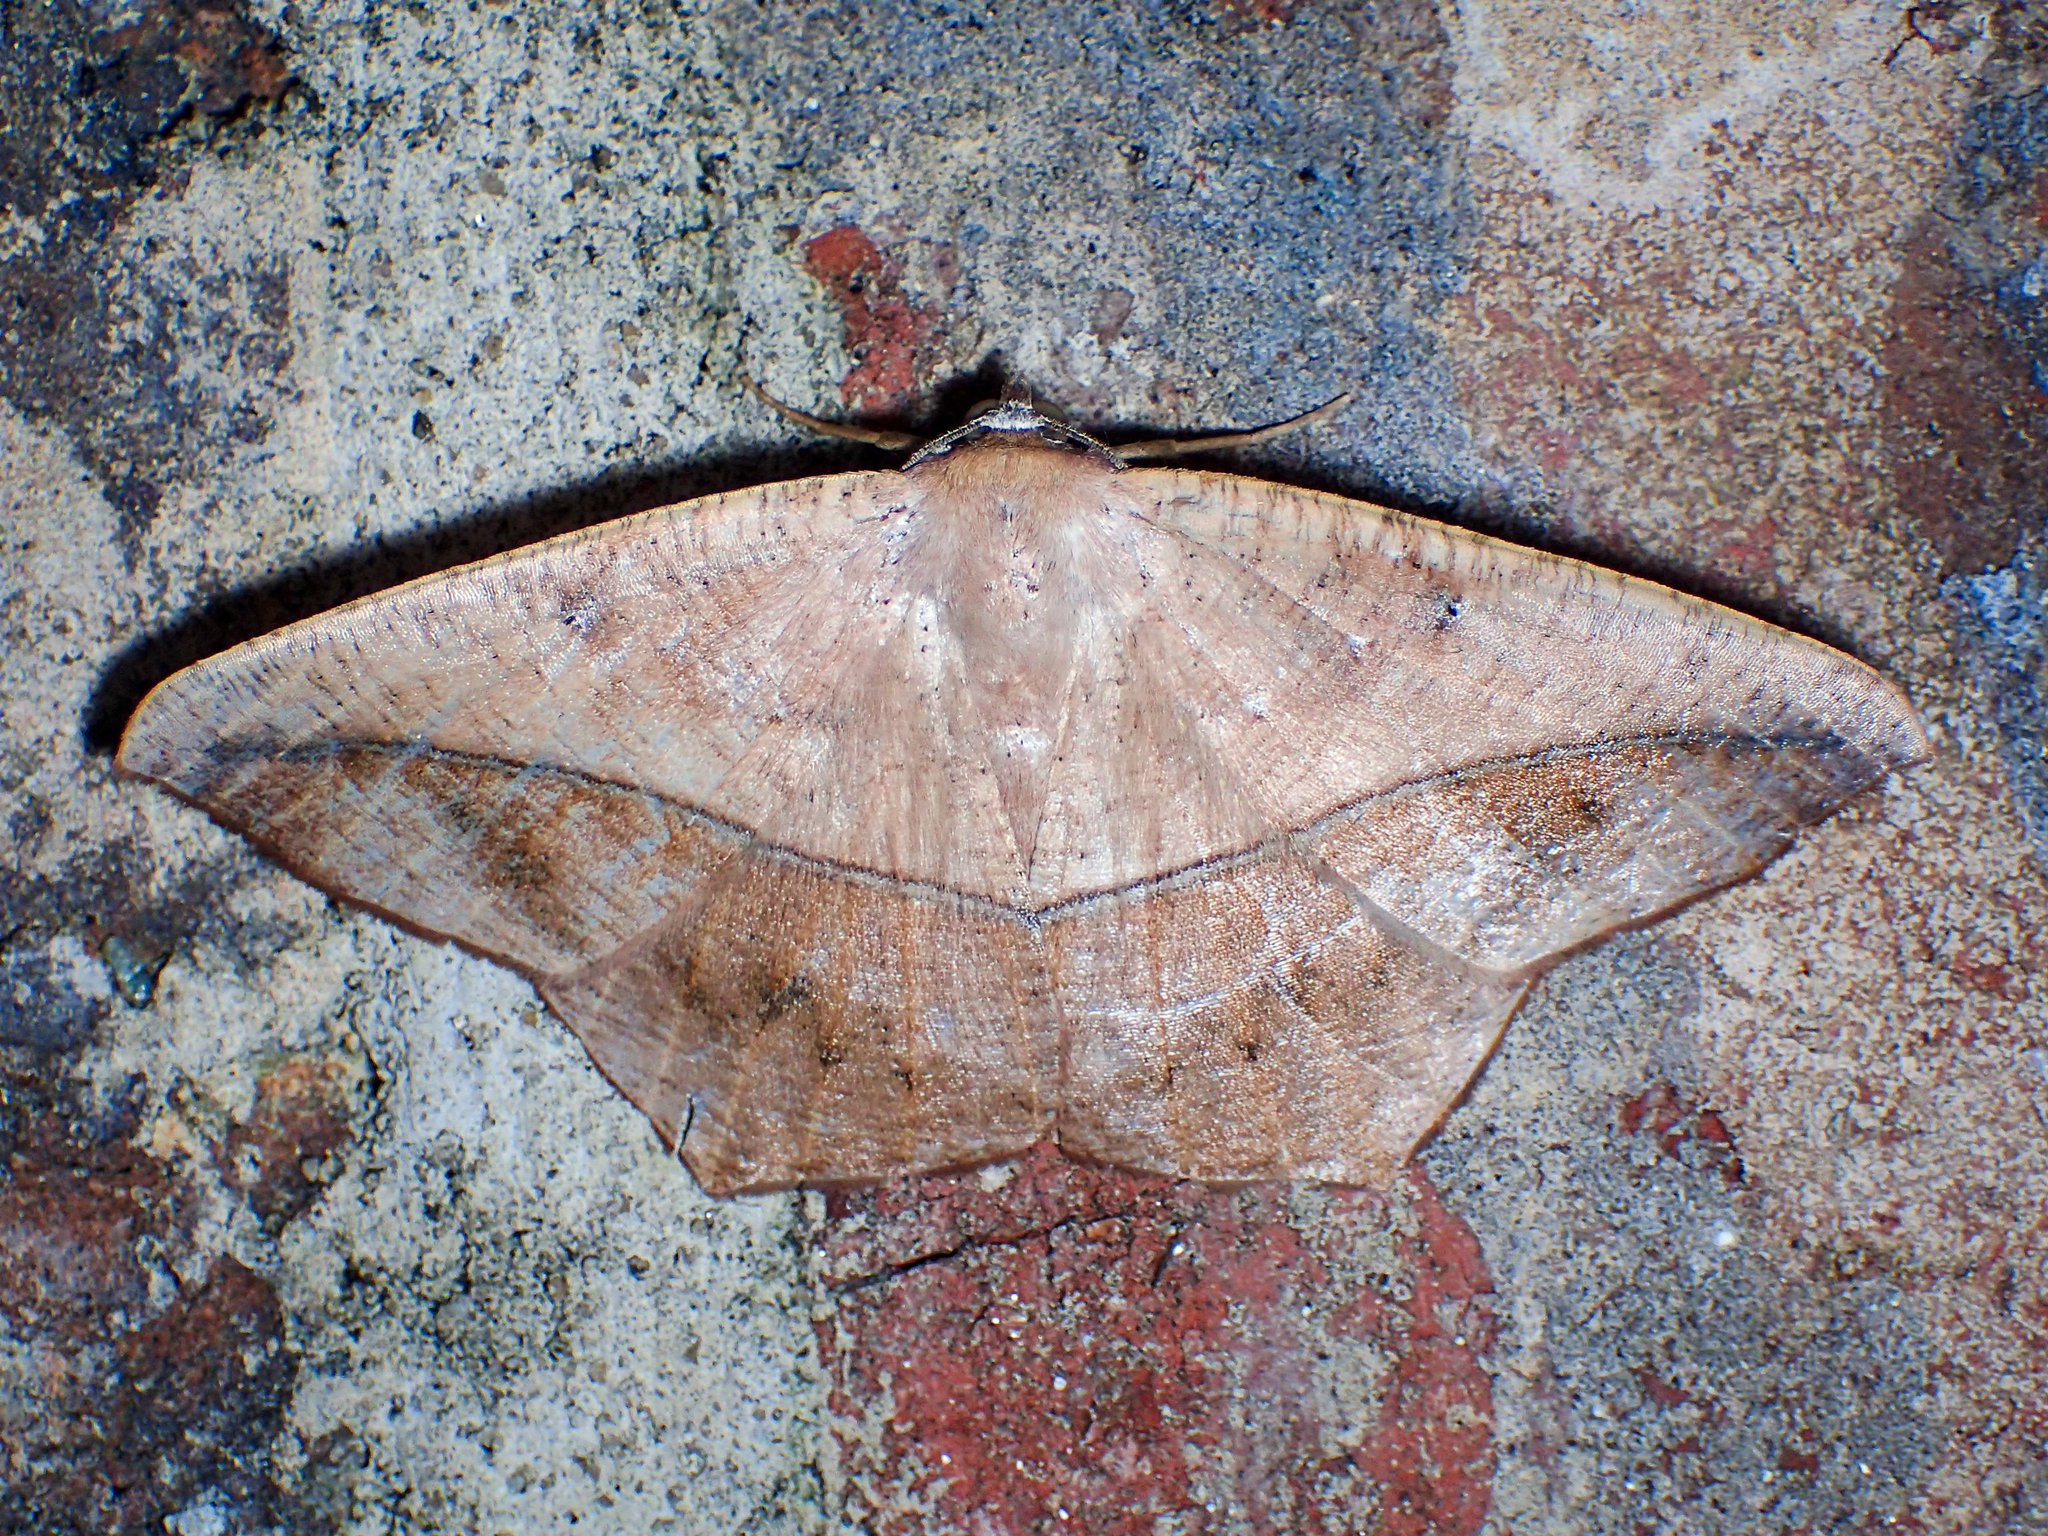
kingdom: Animalia
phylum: Arthropoda
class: Insecta
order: Lepidoptera
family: Geometridae
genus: Prochoerodes
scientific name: Prochoerodes lineola
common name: Large maple spanworm
